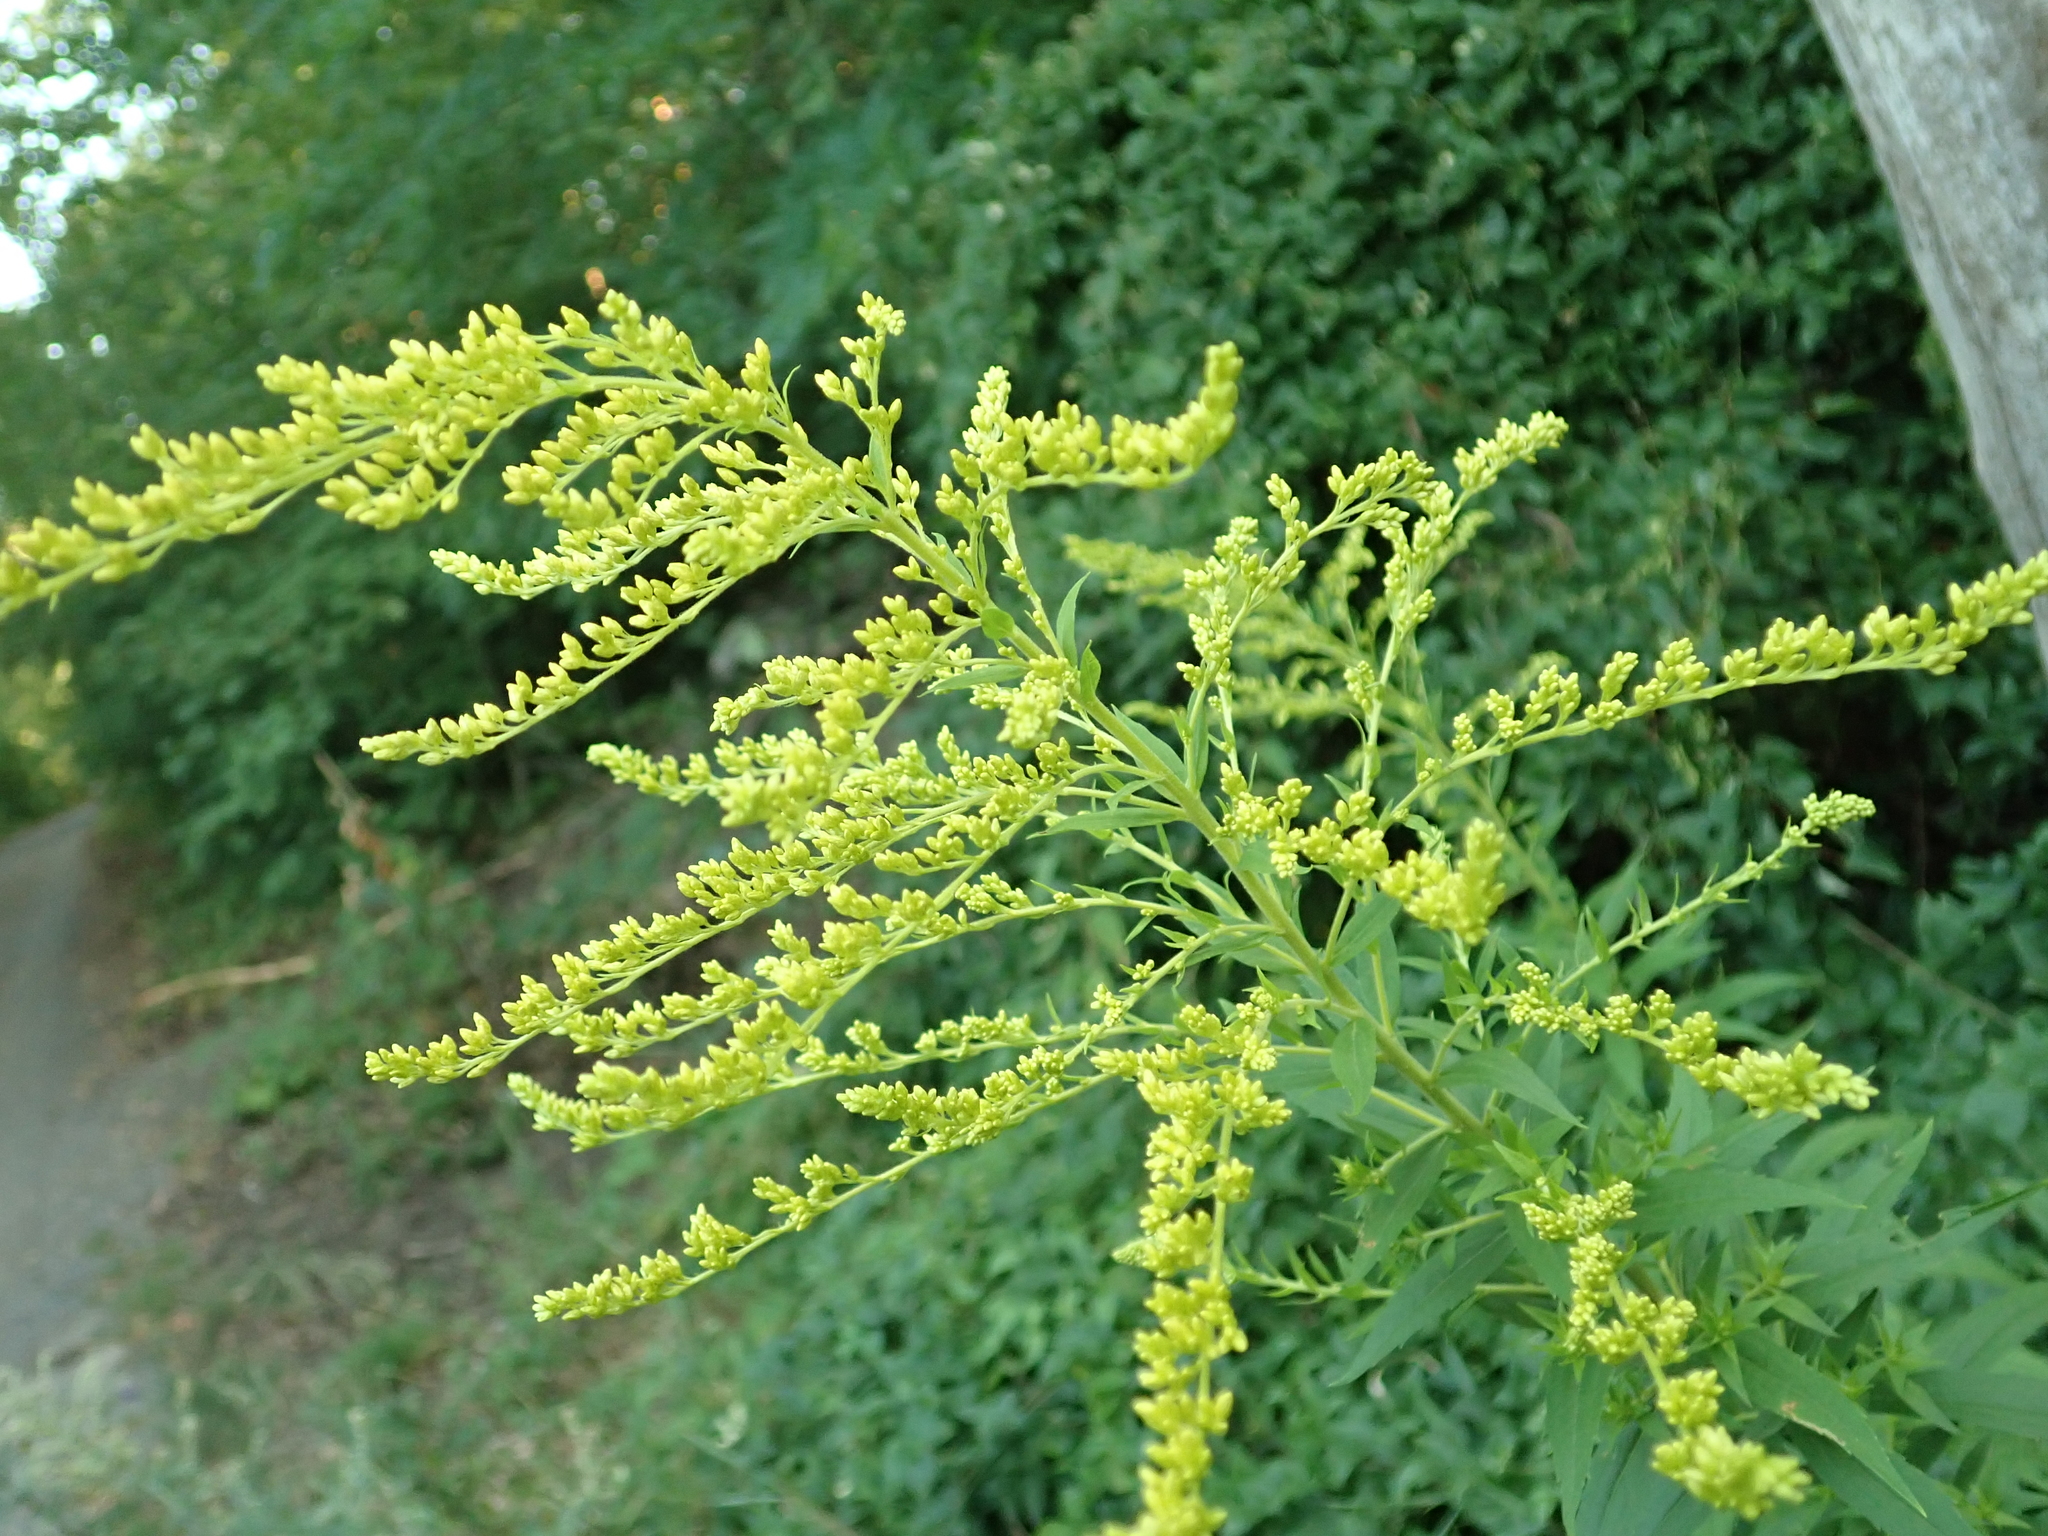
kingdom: Plantae
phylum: Tracheophyta
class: Magnoliopsida
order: Asterales
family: Asteraceae
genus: Solidago
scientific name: Solidago canadensis
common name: Canada goldenrod
